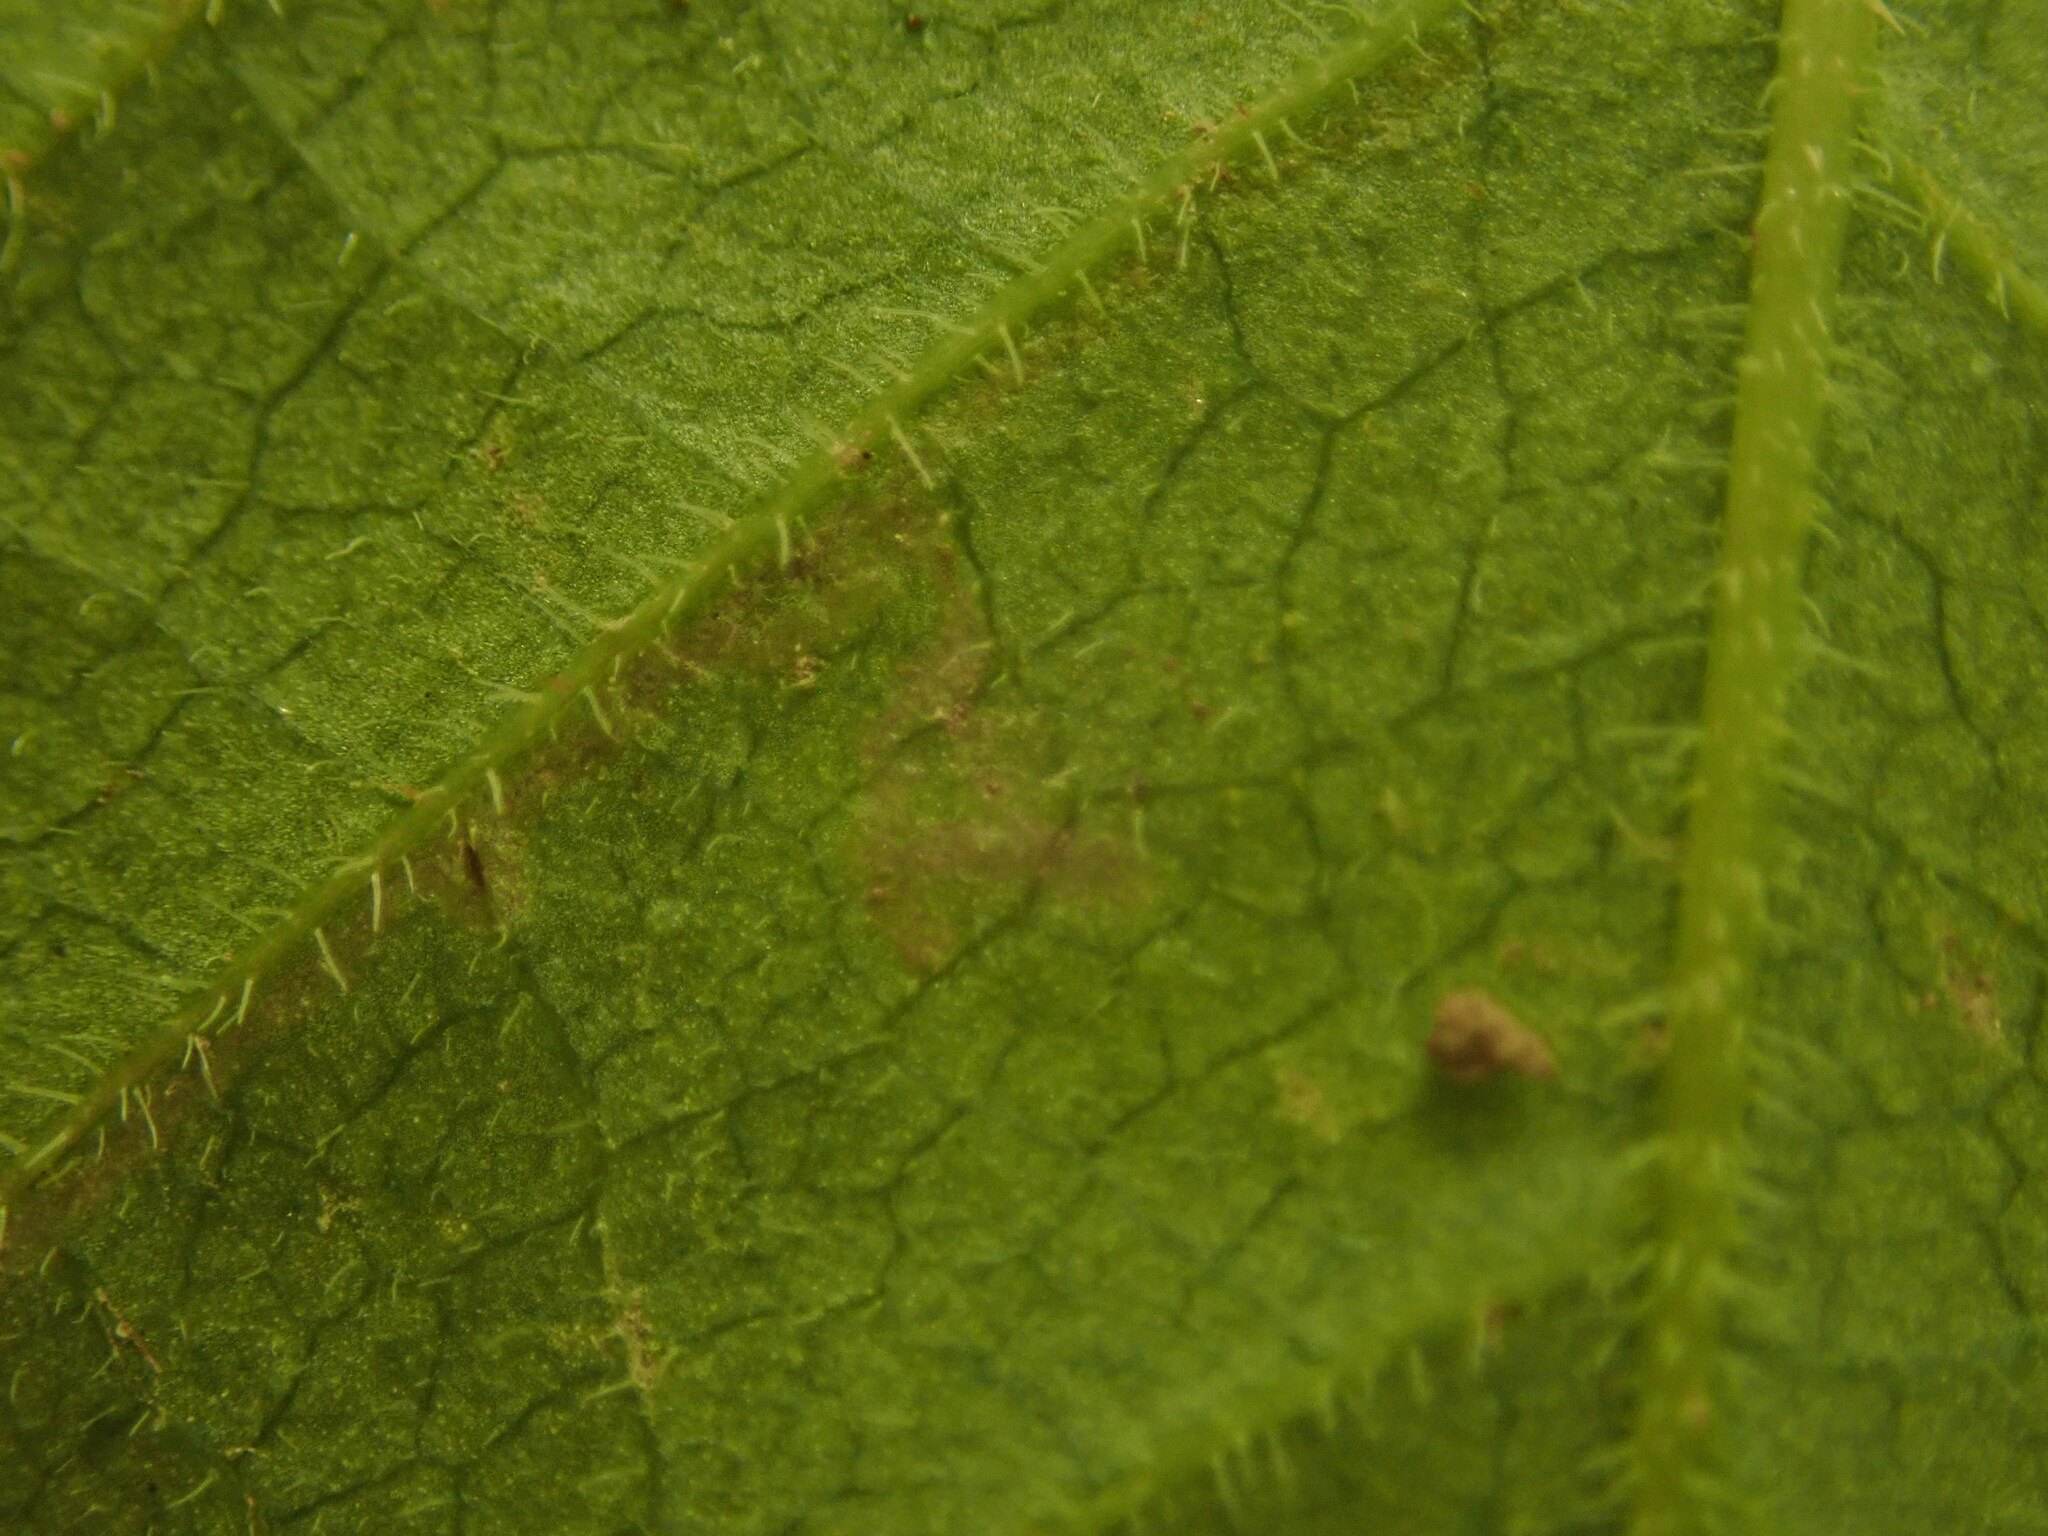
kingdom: Animalia
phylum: Arthropoda
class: Insecta
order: Lepidoptera
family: Gracillariidae
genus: Phyllocnistis
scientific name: Phyllocnistis ampelopsiella
